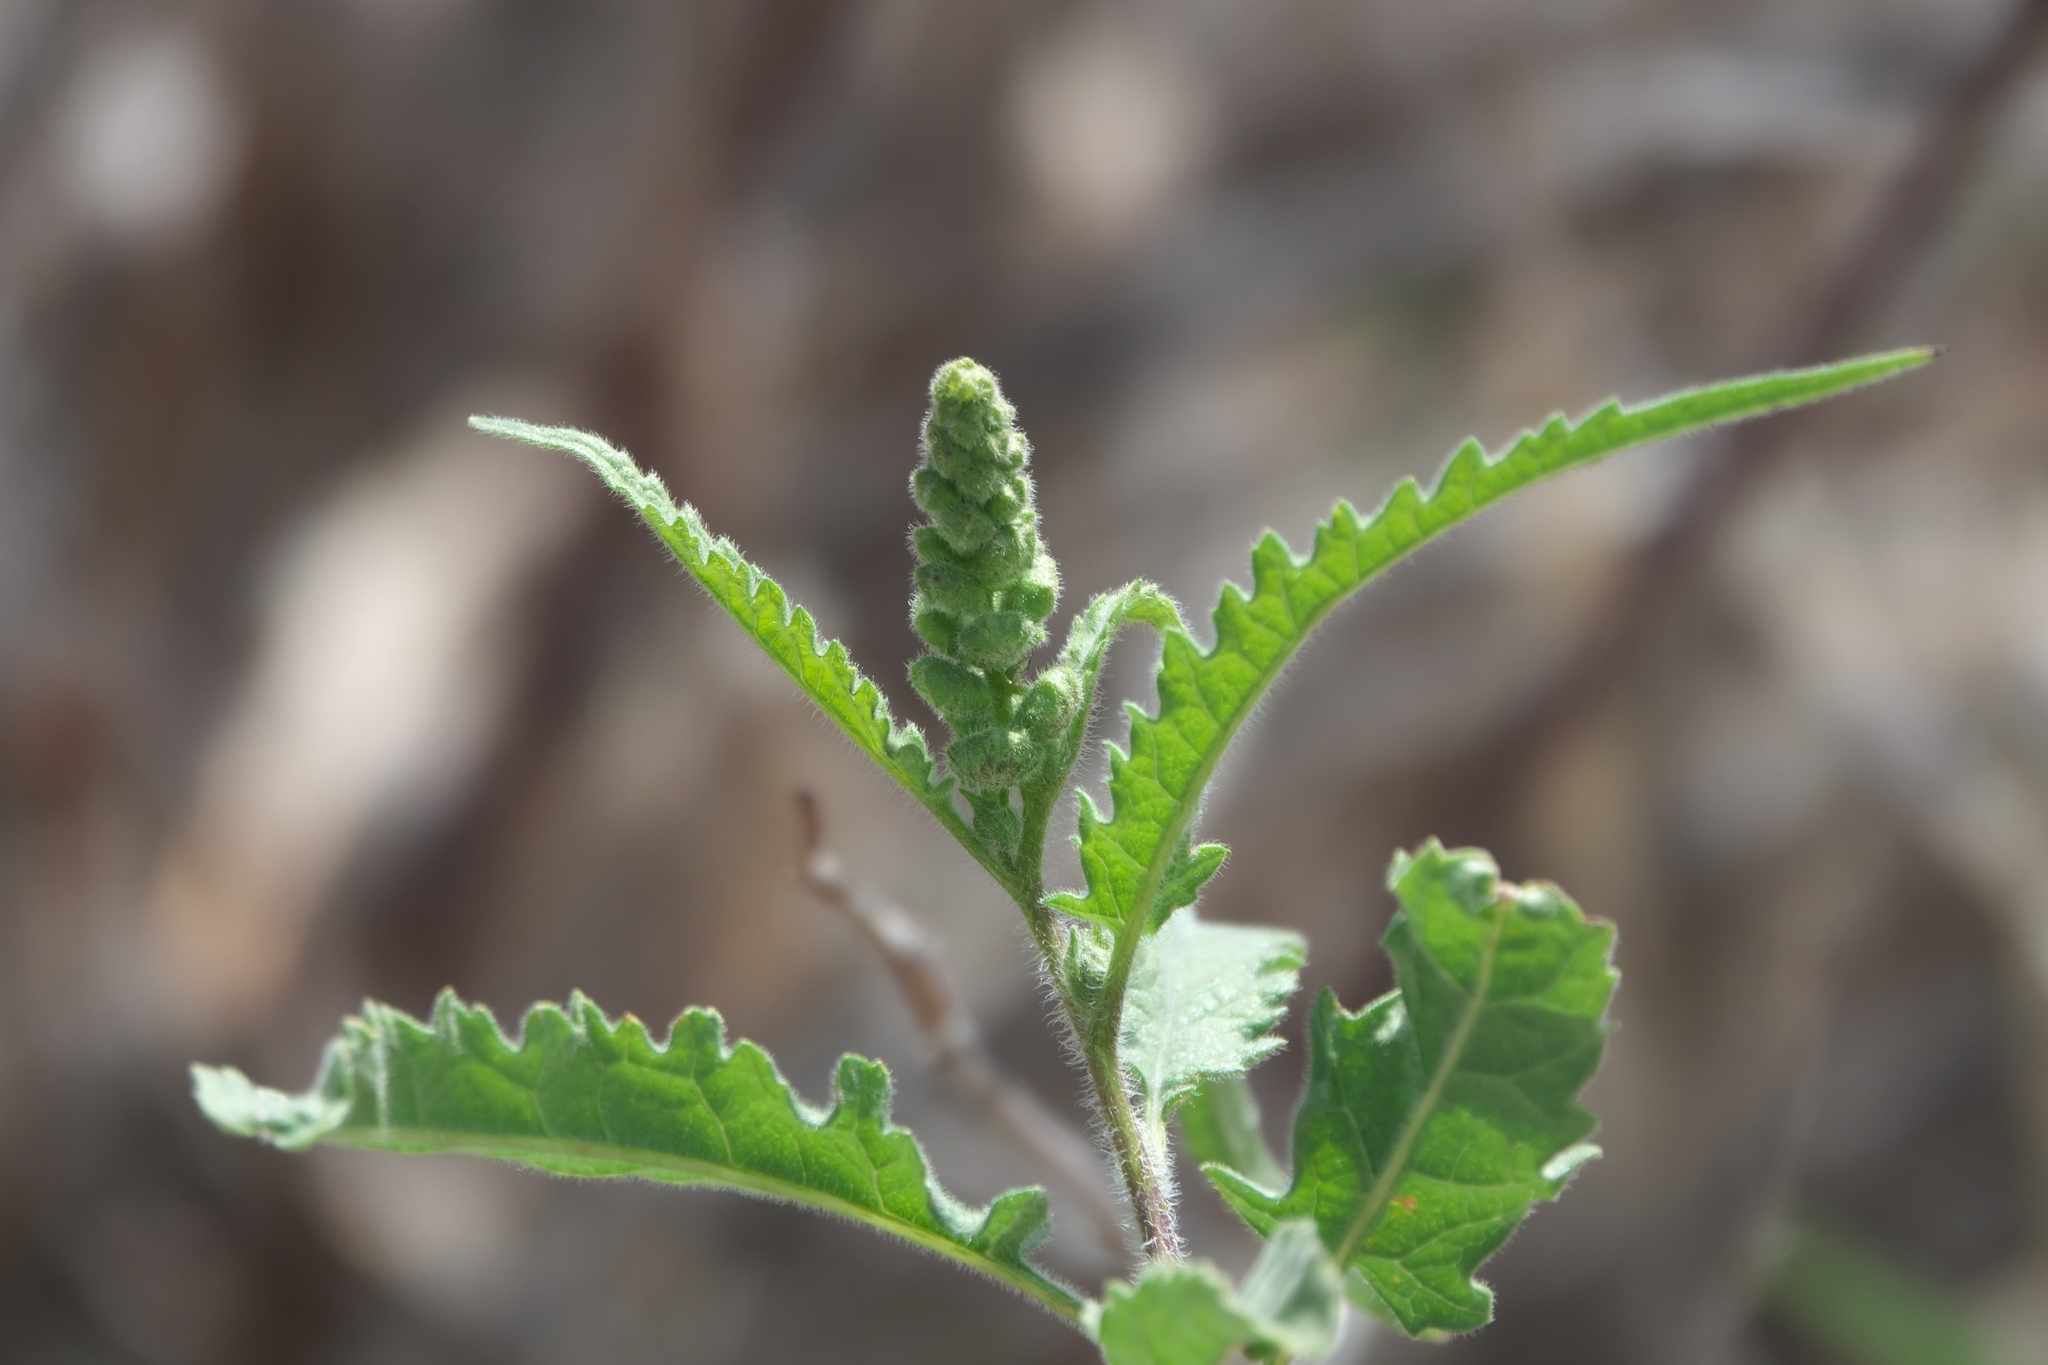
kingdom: Plantae
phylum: Tracheophyta
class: Magnoliopsida
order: Asterales
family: Asteraceae
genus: Ambrosia
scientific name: Ambrosia ambrosioides
